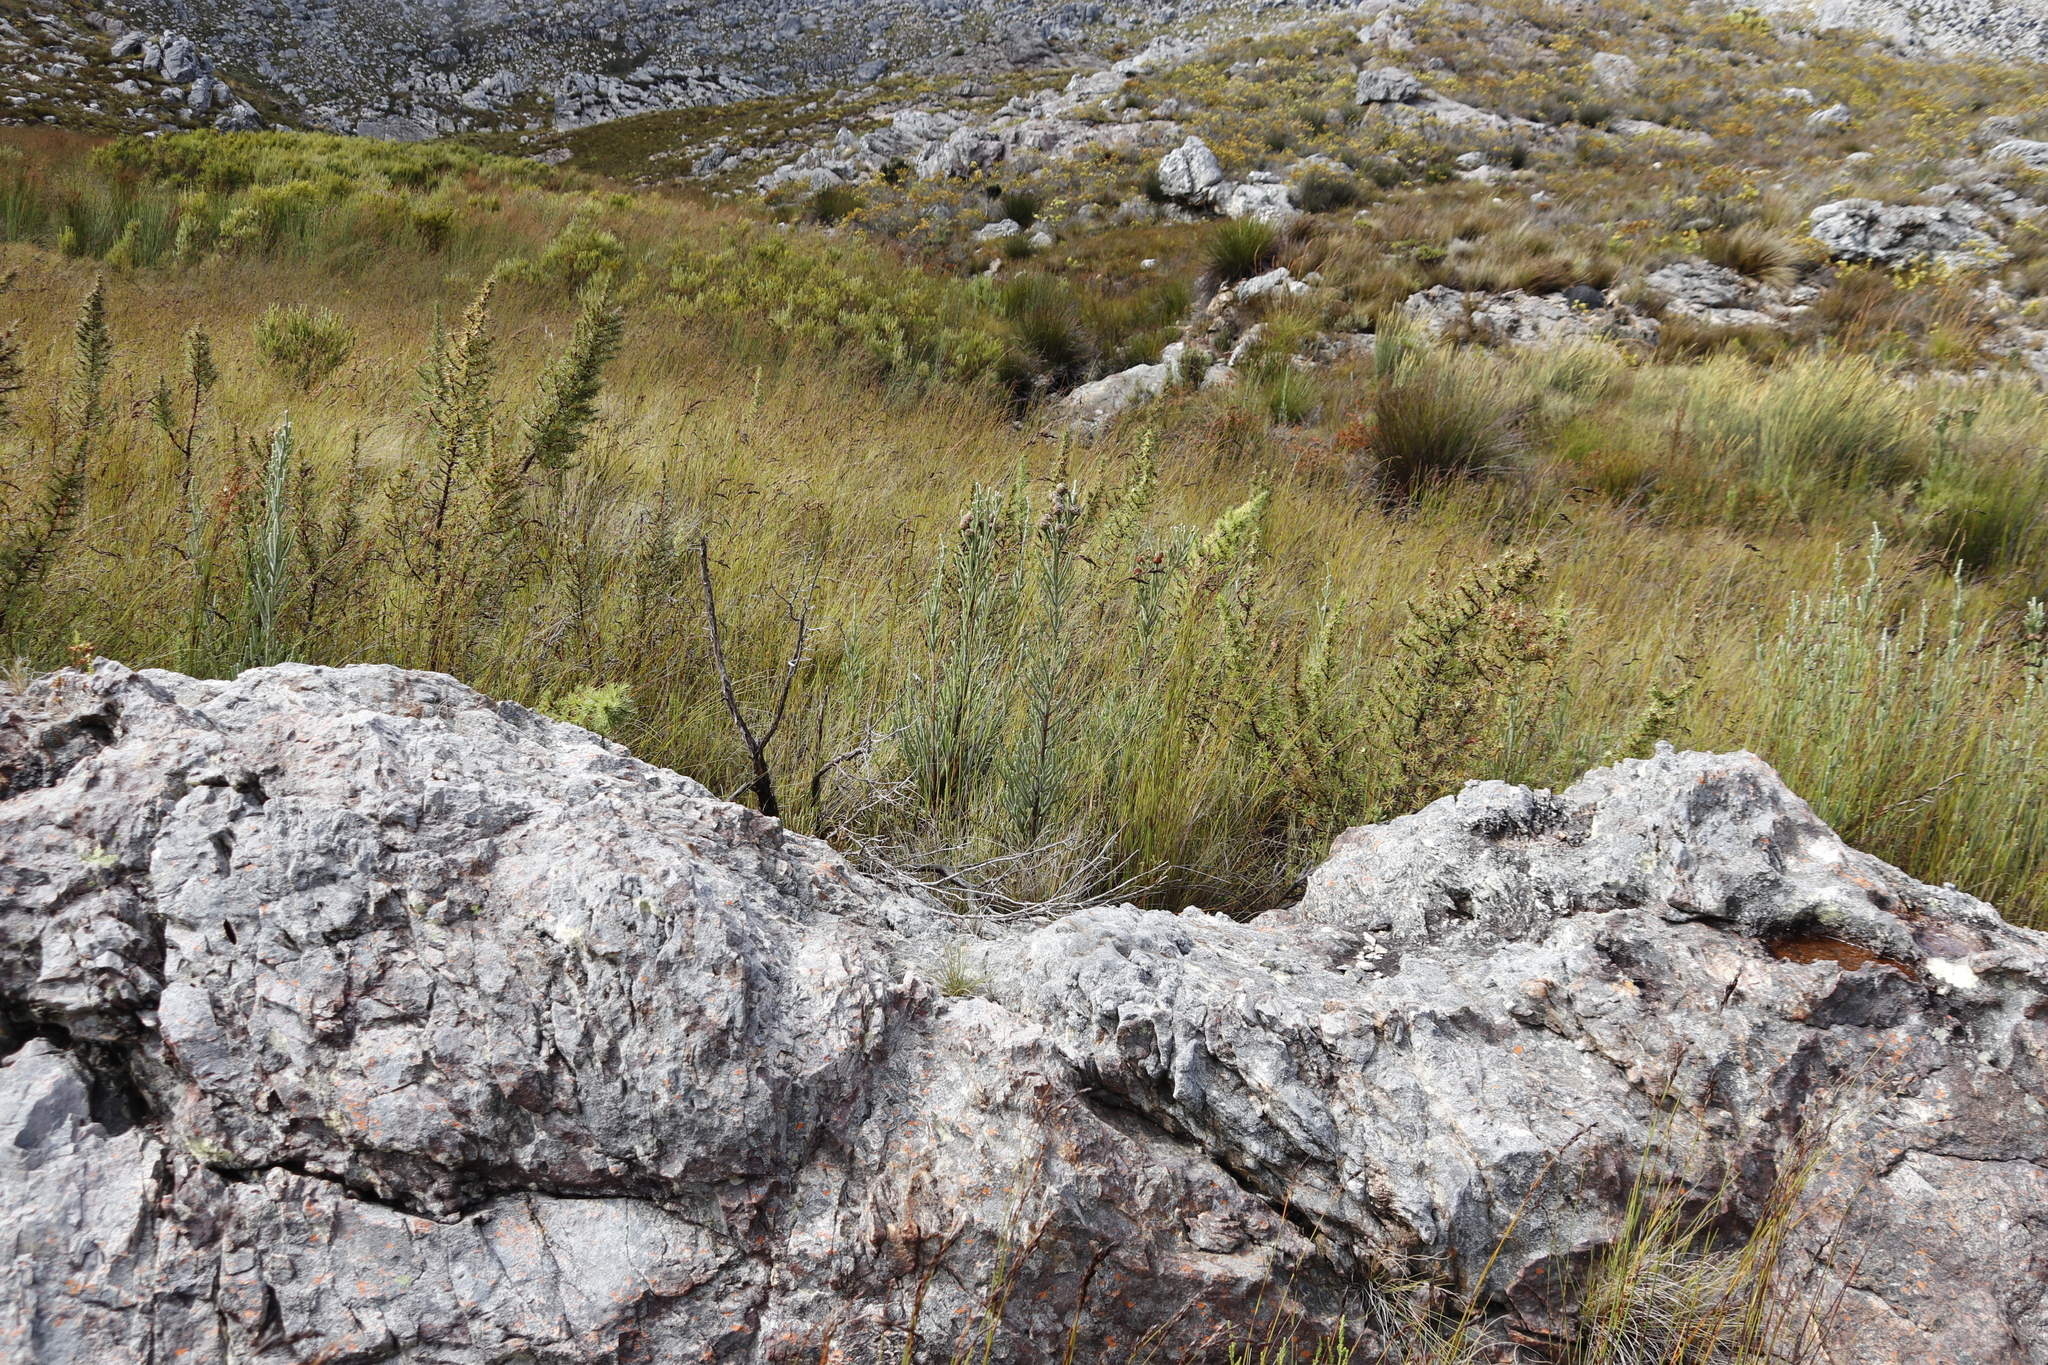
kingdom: Plantae
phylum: Tracheophyta
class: Magnoliopsida
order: Bruniales
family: Bruniaceae
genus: Brunia
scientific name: Brunia sphaerocephala
